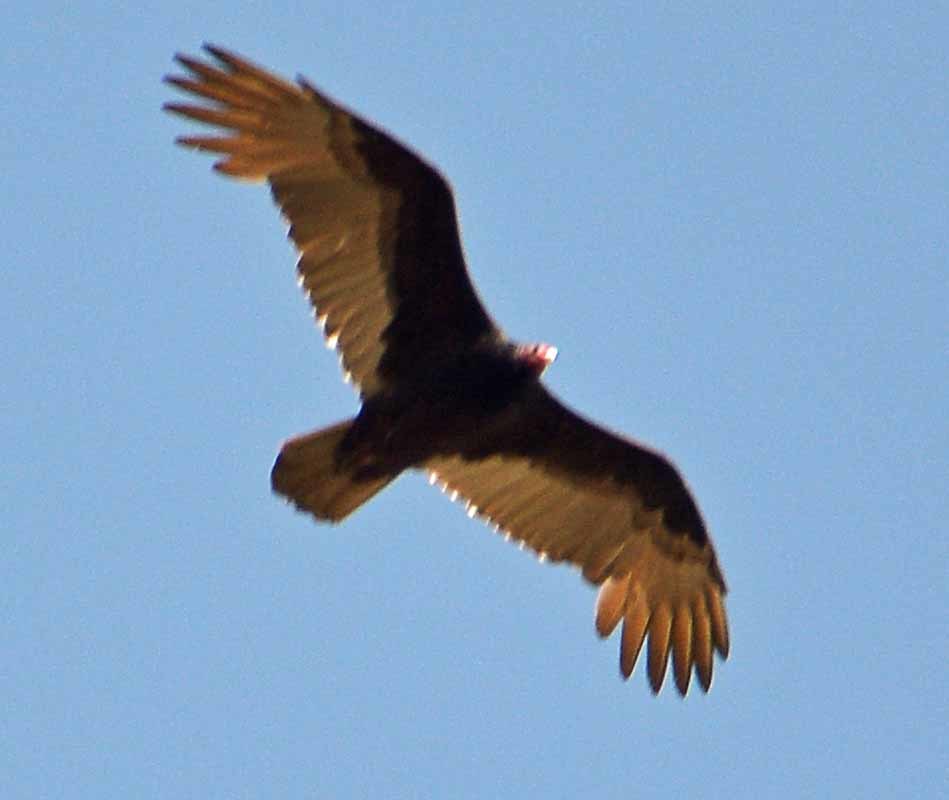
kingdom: Animalia
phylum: Chordata
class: Aves
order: Accipitriformes
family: Cathartidae
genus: Cathartes
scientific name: Cathartes aura
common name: Turkey vulture
